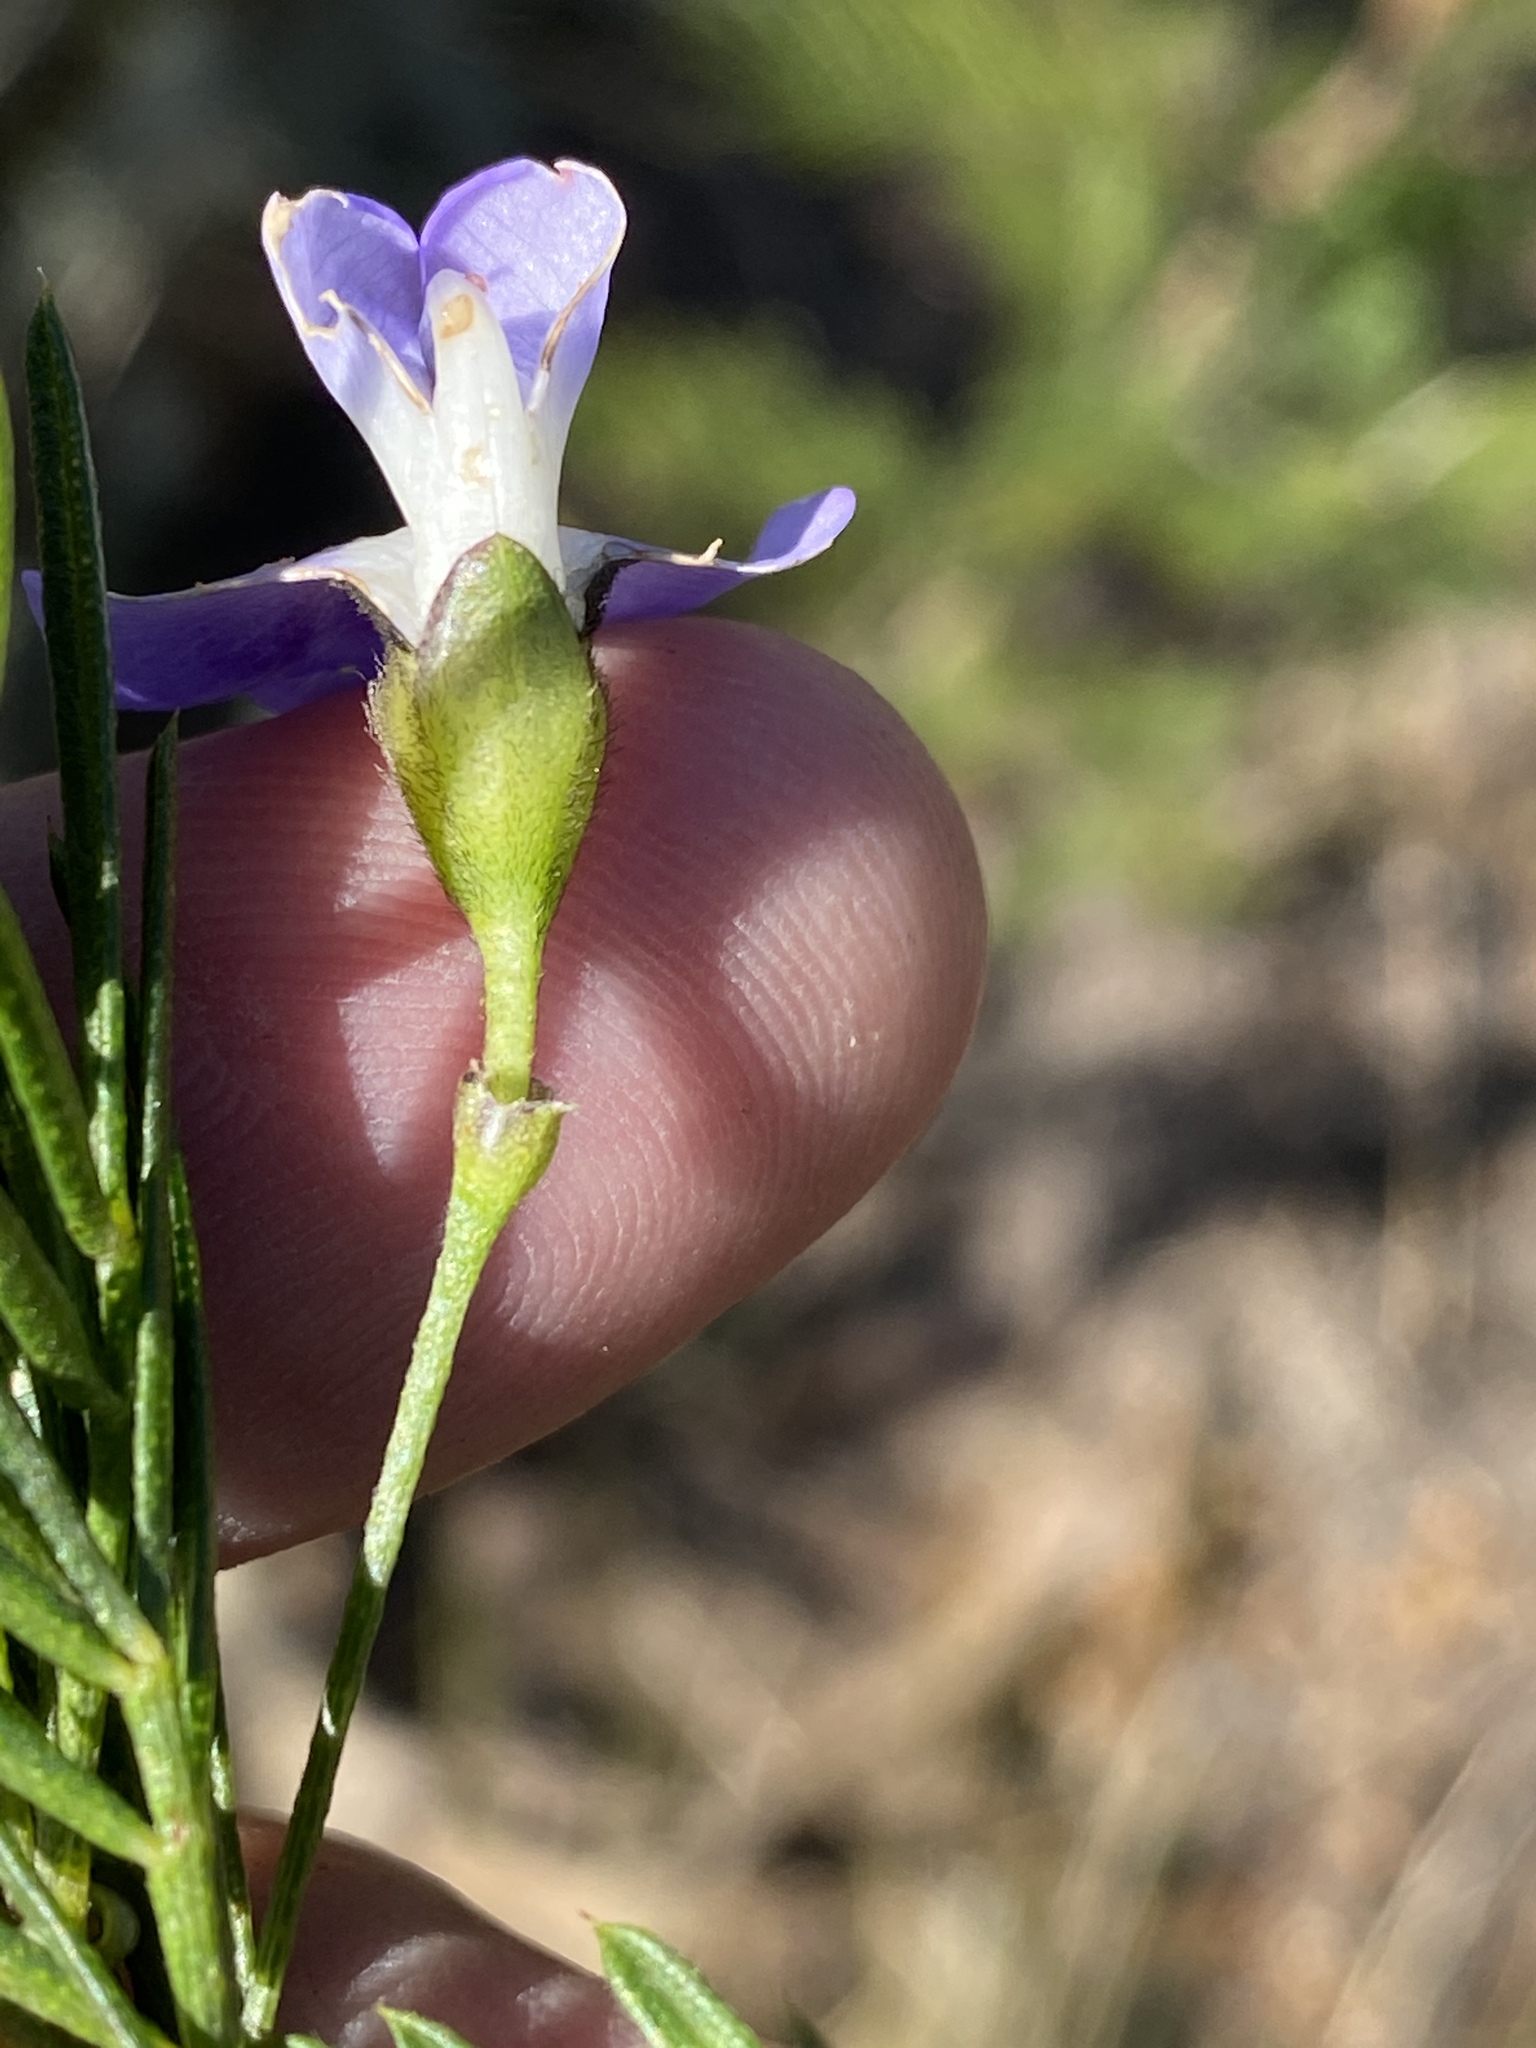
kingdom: Plantae
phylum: Tracheophyta
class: Magnoliopsida
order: Fabales
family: Fabaceae
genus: Psoralea
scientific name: Psoralea arborea
